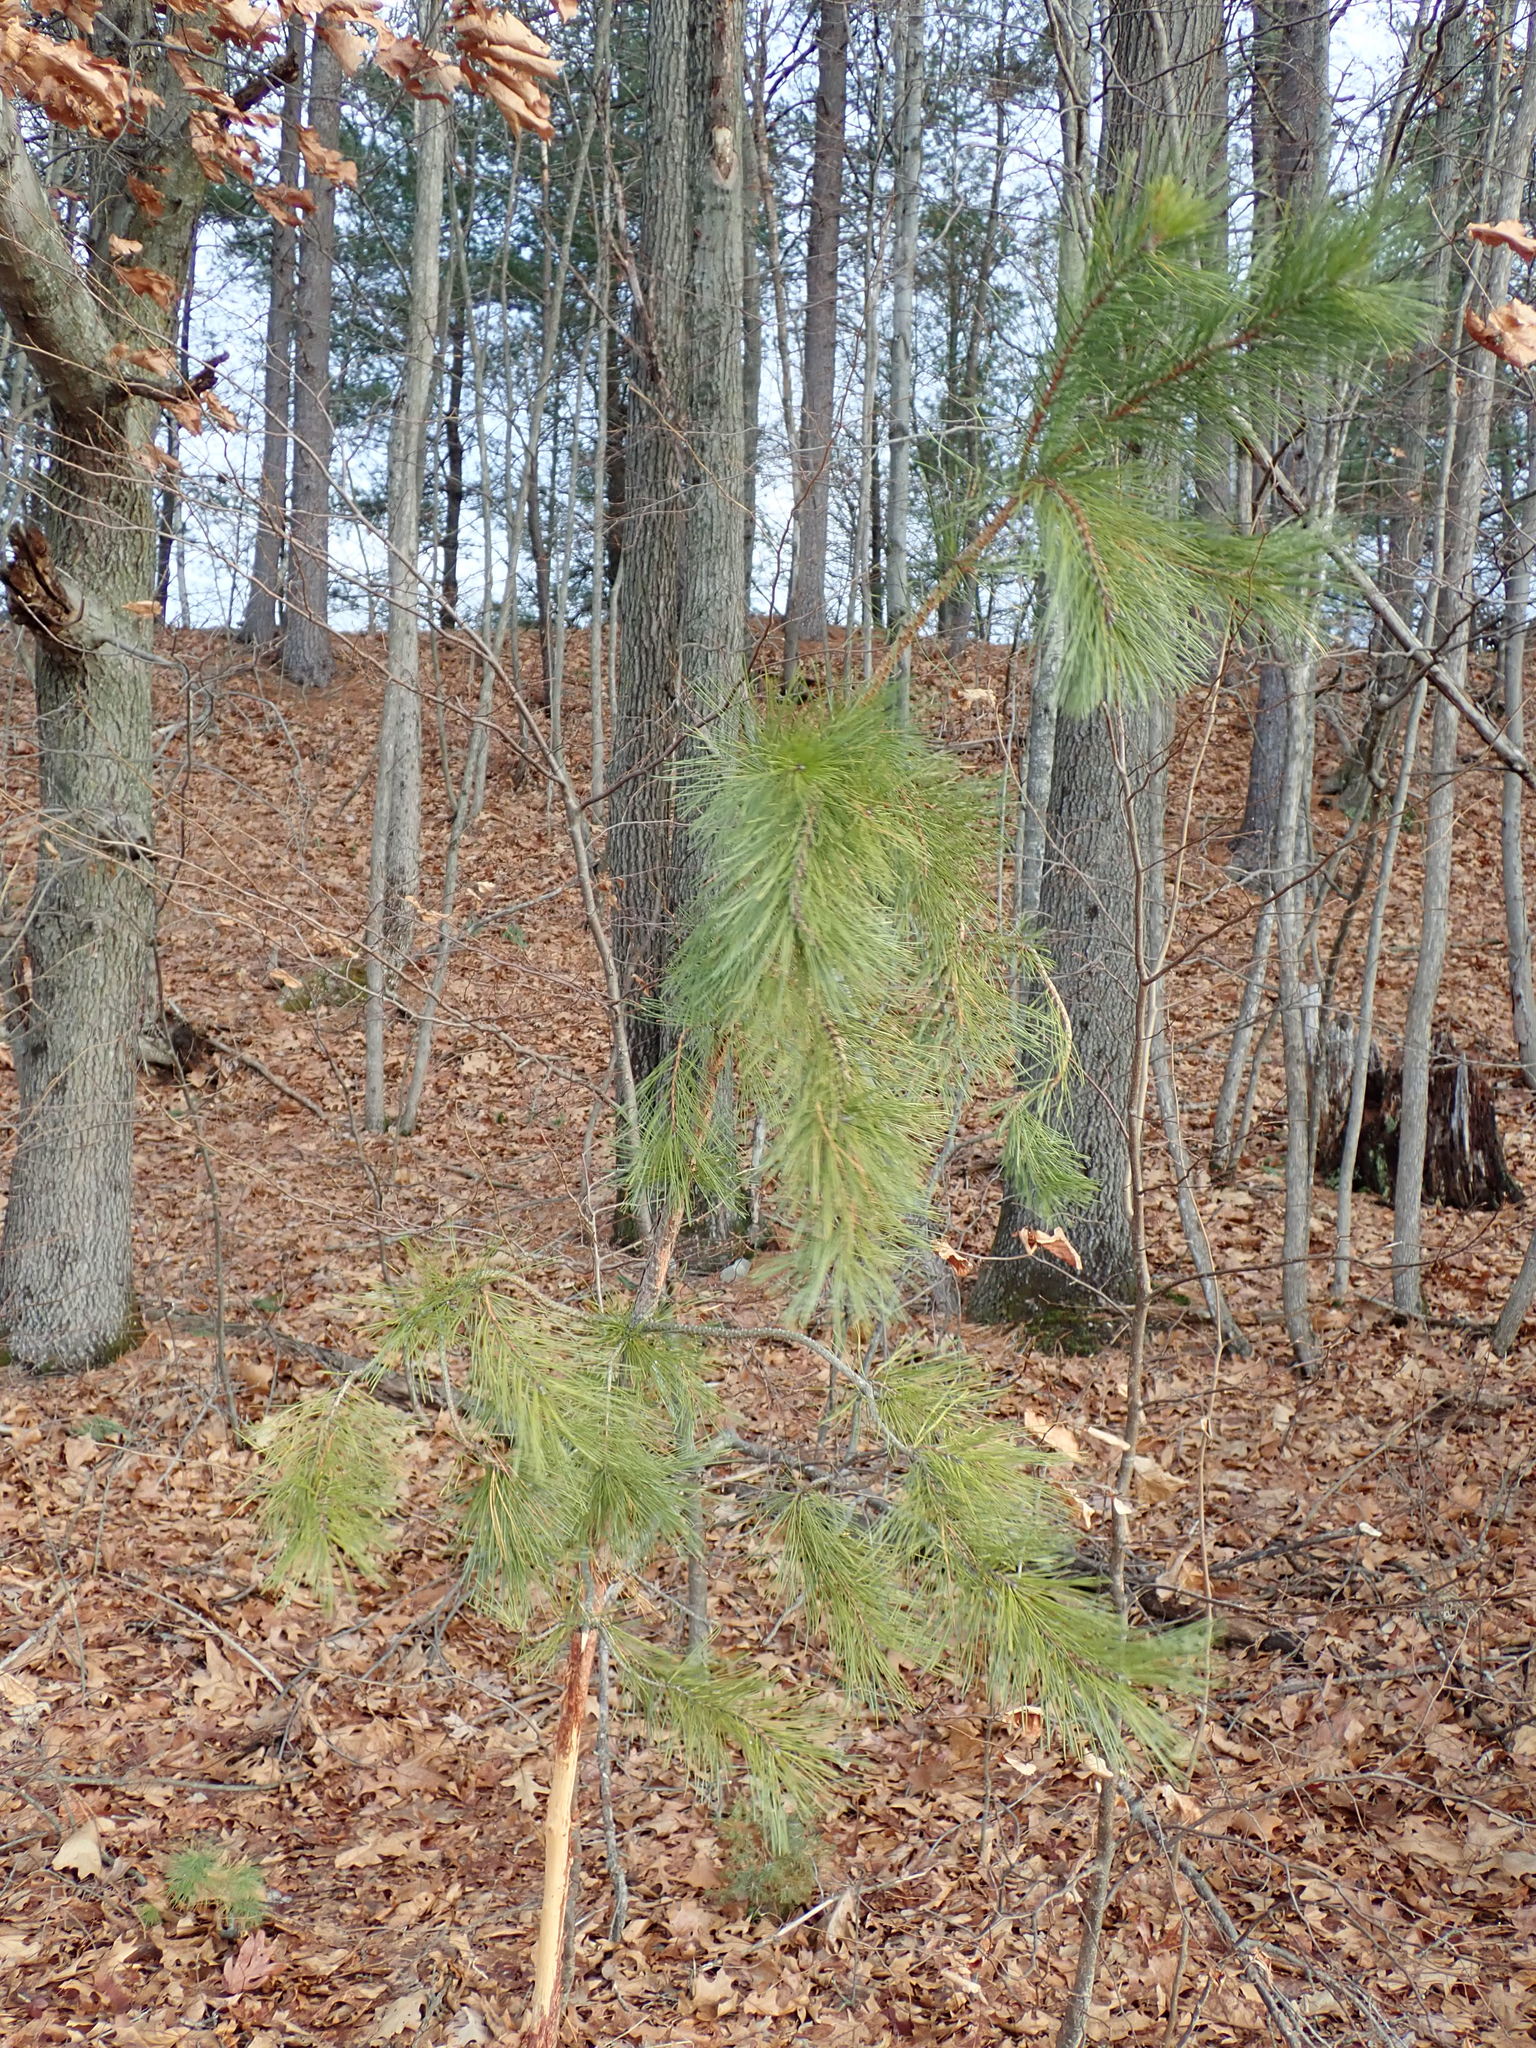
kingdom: Plantae
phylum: Tracheophyta
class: Pinopsida
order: Pinales
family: Pinaceae
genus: Pinus
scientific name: Pinus rigida
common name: Pitch pine
